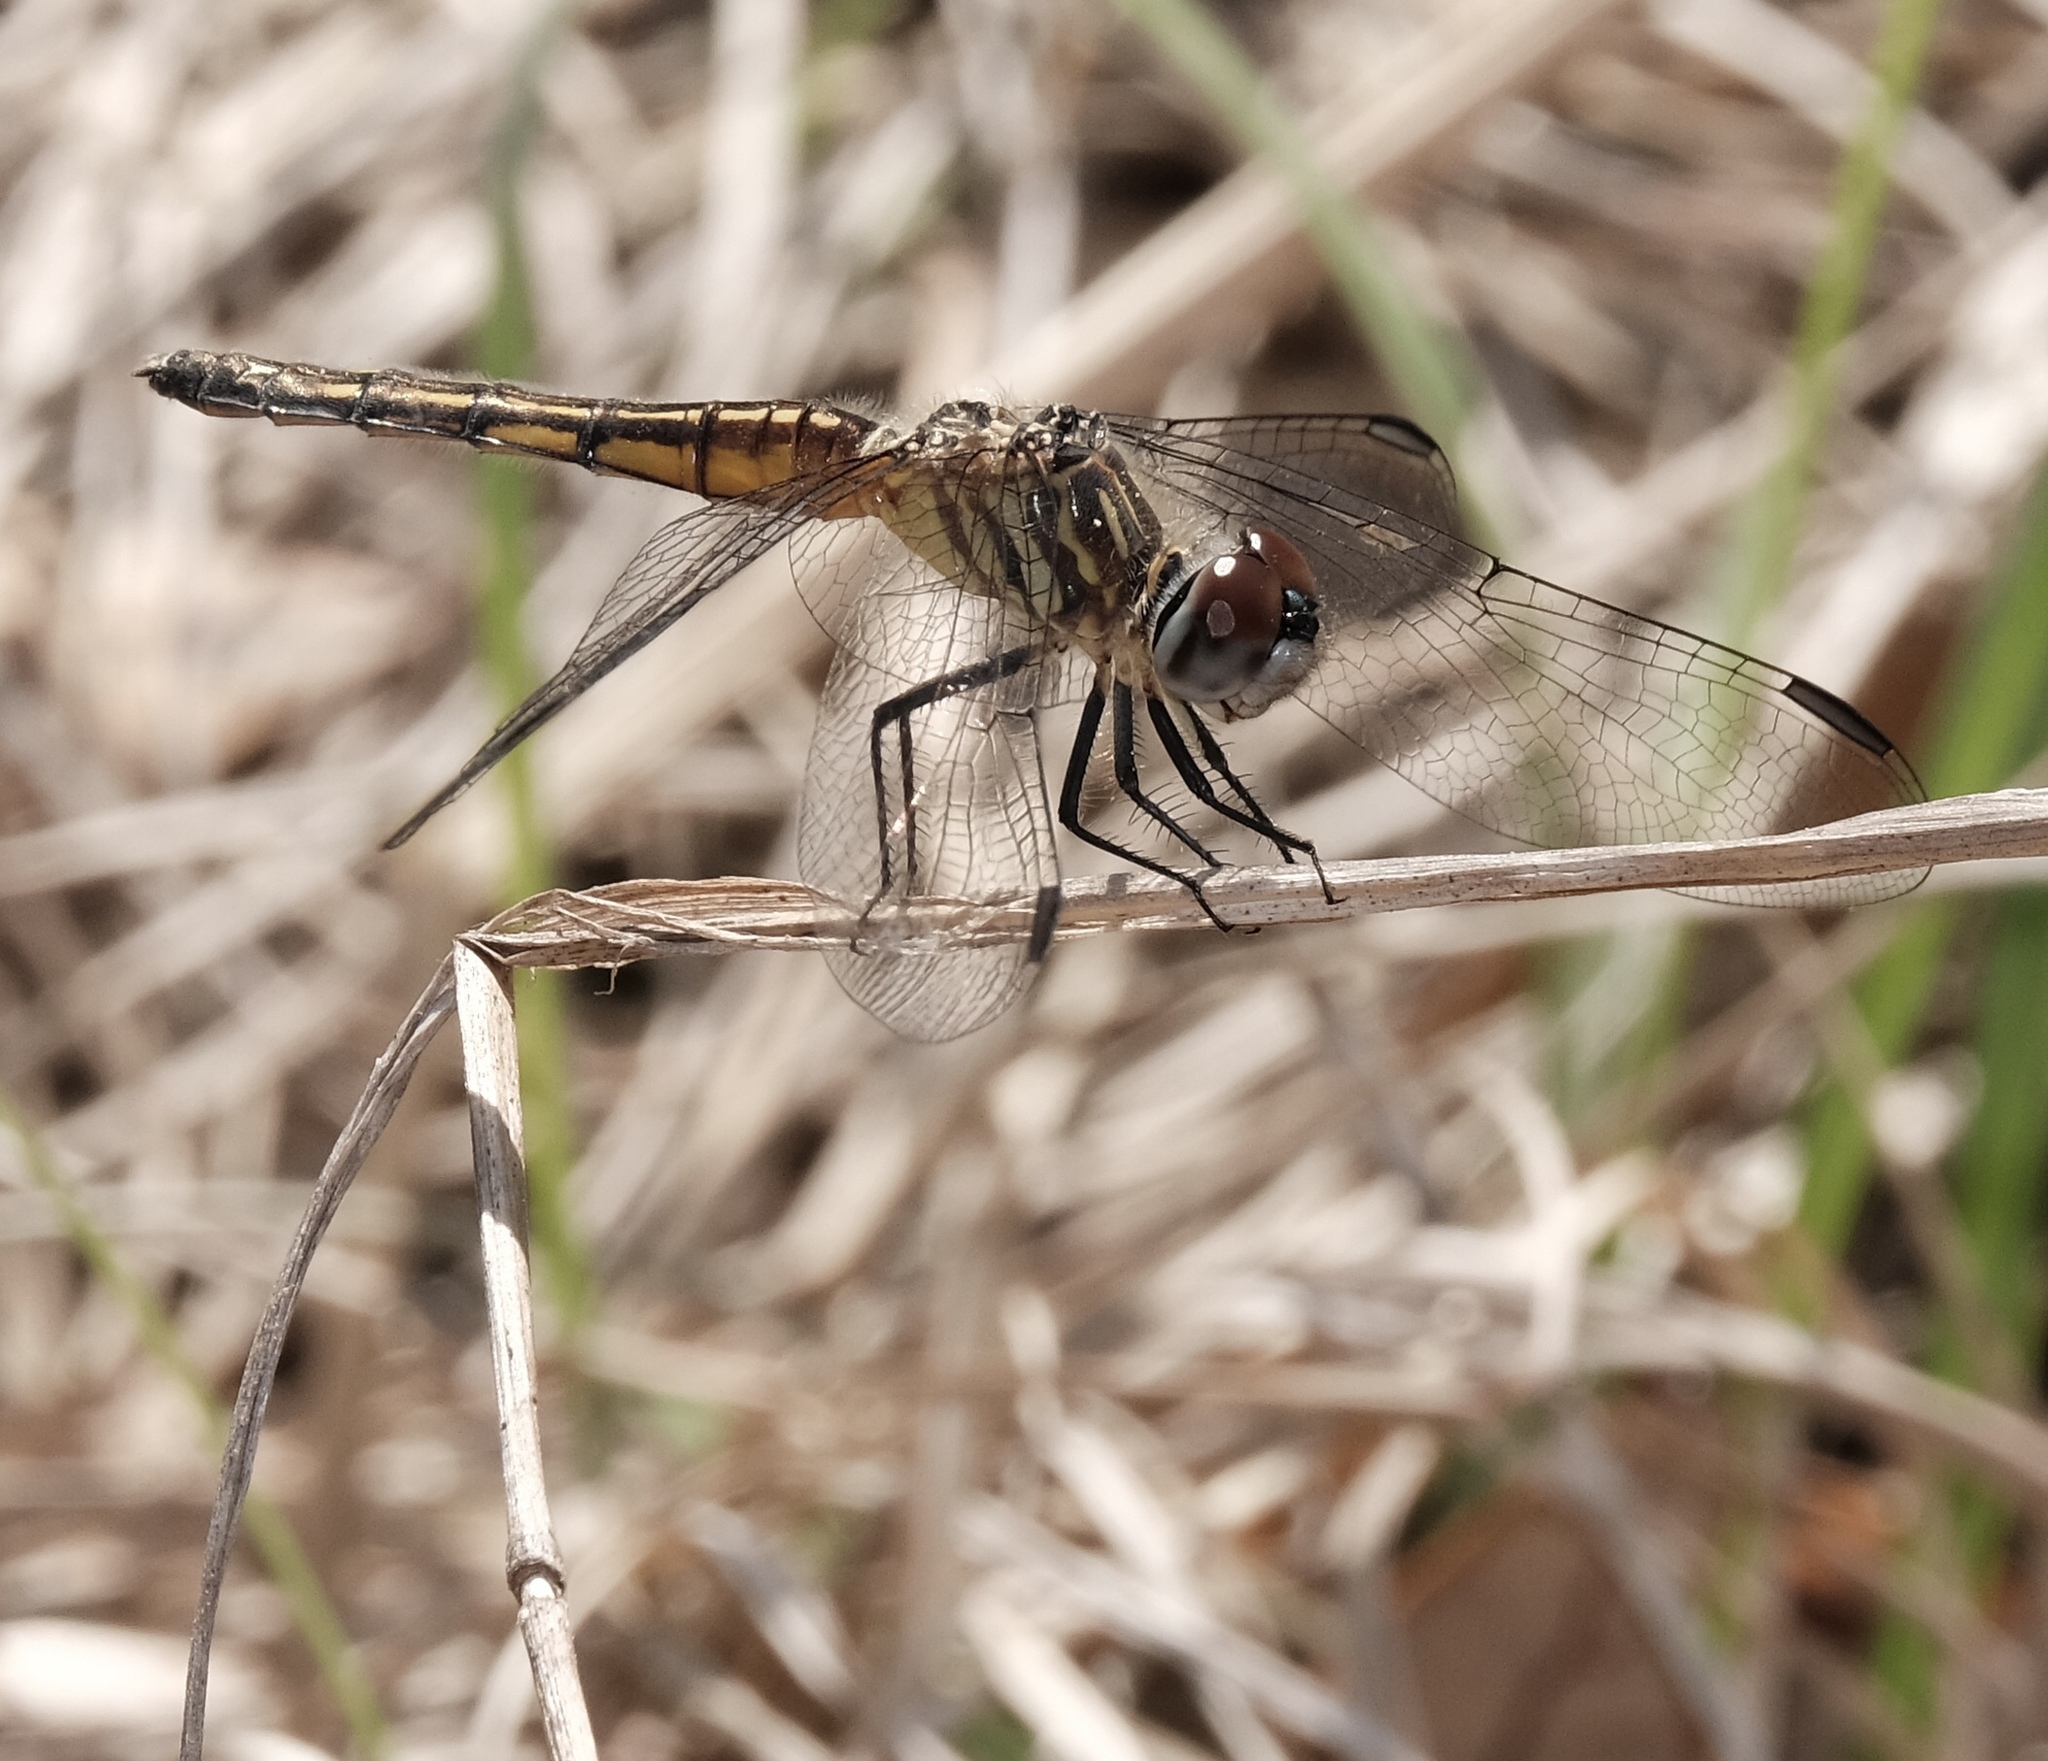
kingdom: Animalia
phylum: Arthropoda
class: Insecta
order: Odonata
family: Libellulidae
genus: Pachydiplax
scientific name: Pachydiplax longipennis
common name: Blue dasher
